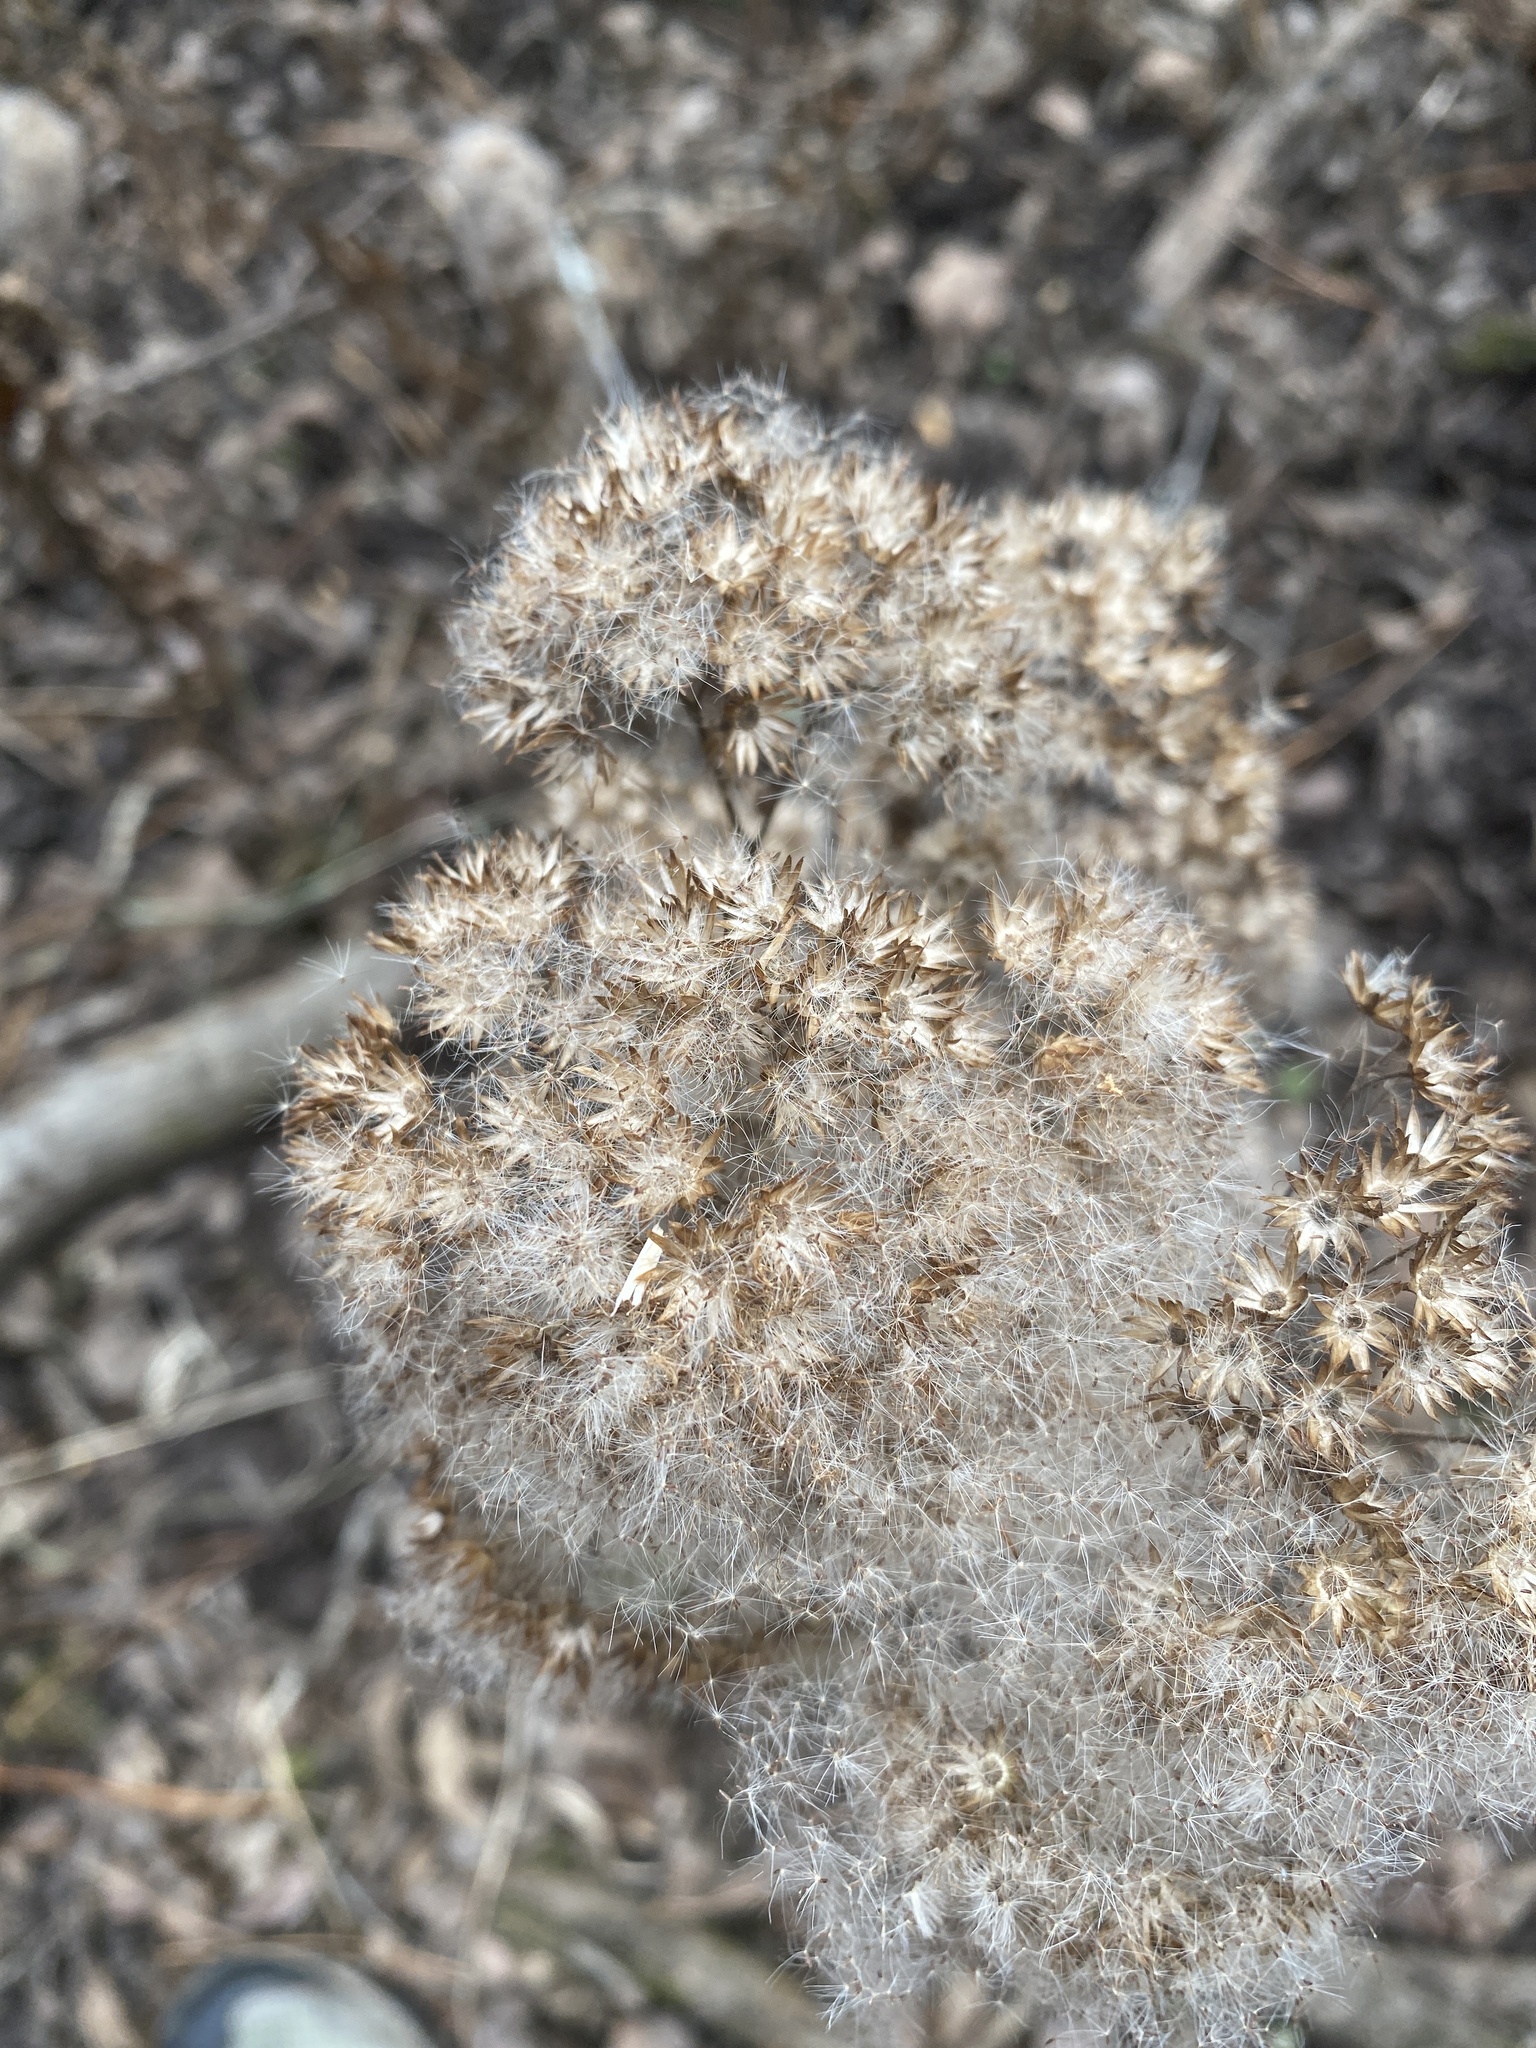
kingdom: Plantae
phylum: Tracheophyta
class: Magnoliopsida
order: Asterales
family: Asteraceae
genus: Pluchea
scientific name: Pluchea camphorata
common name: Camphor pluchea
